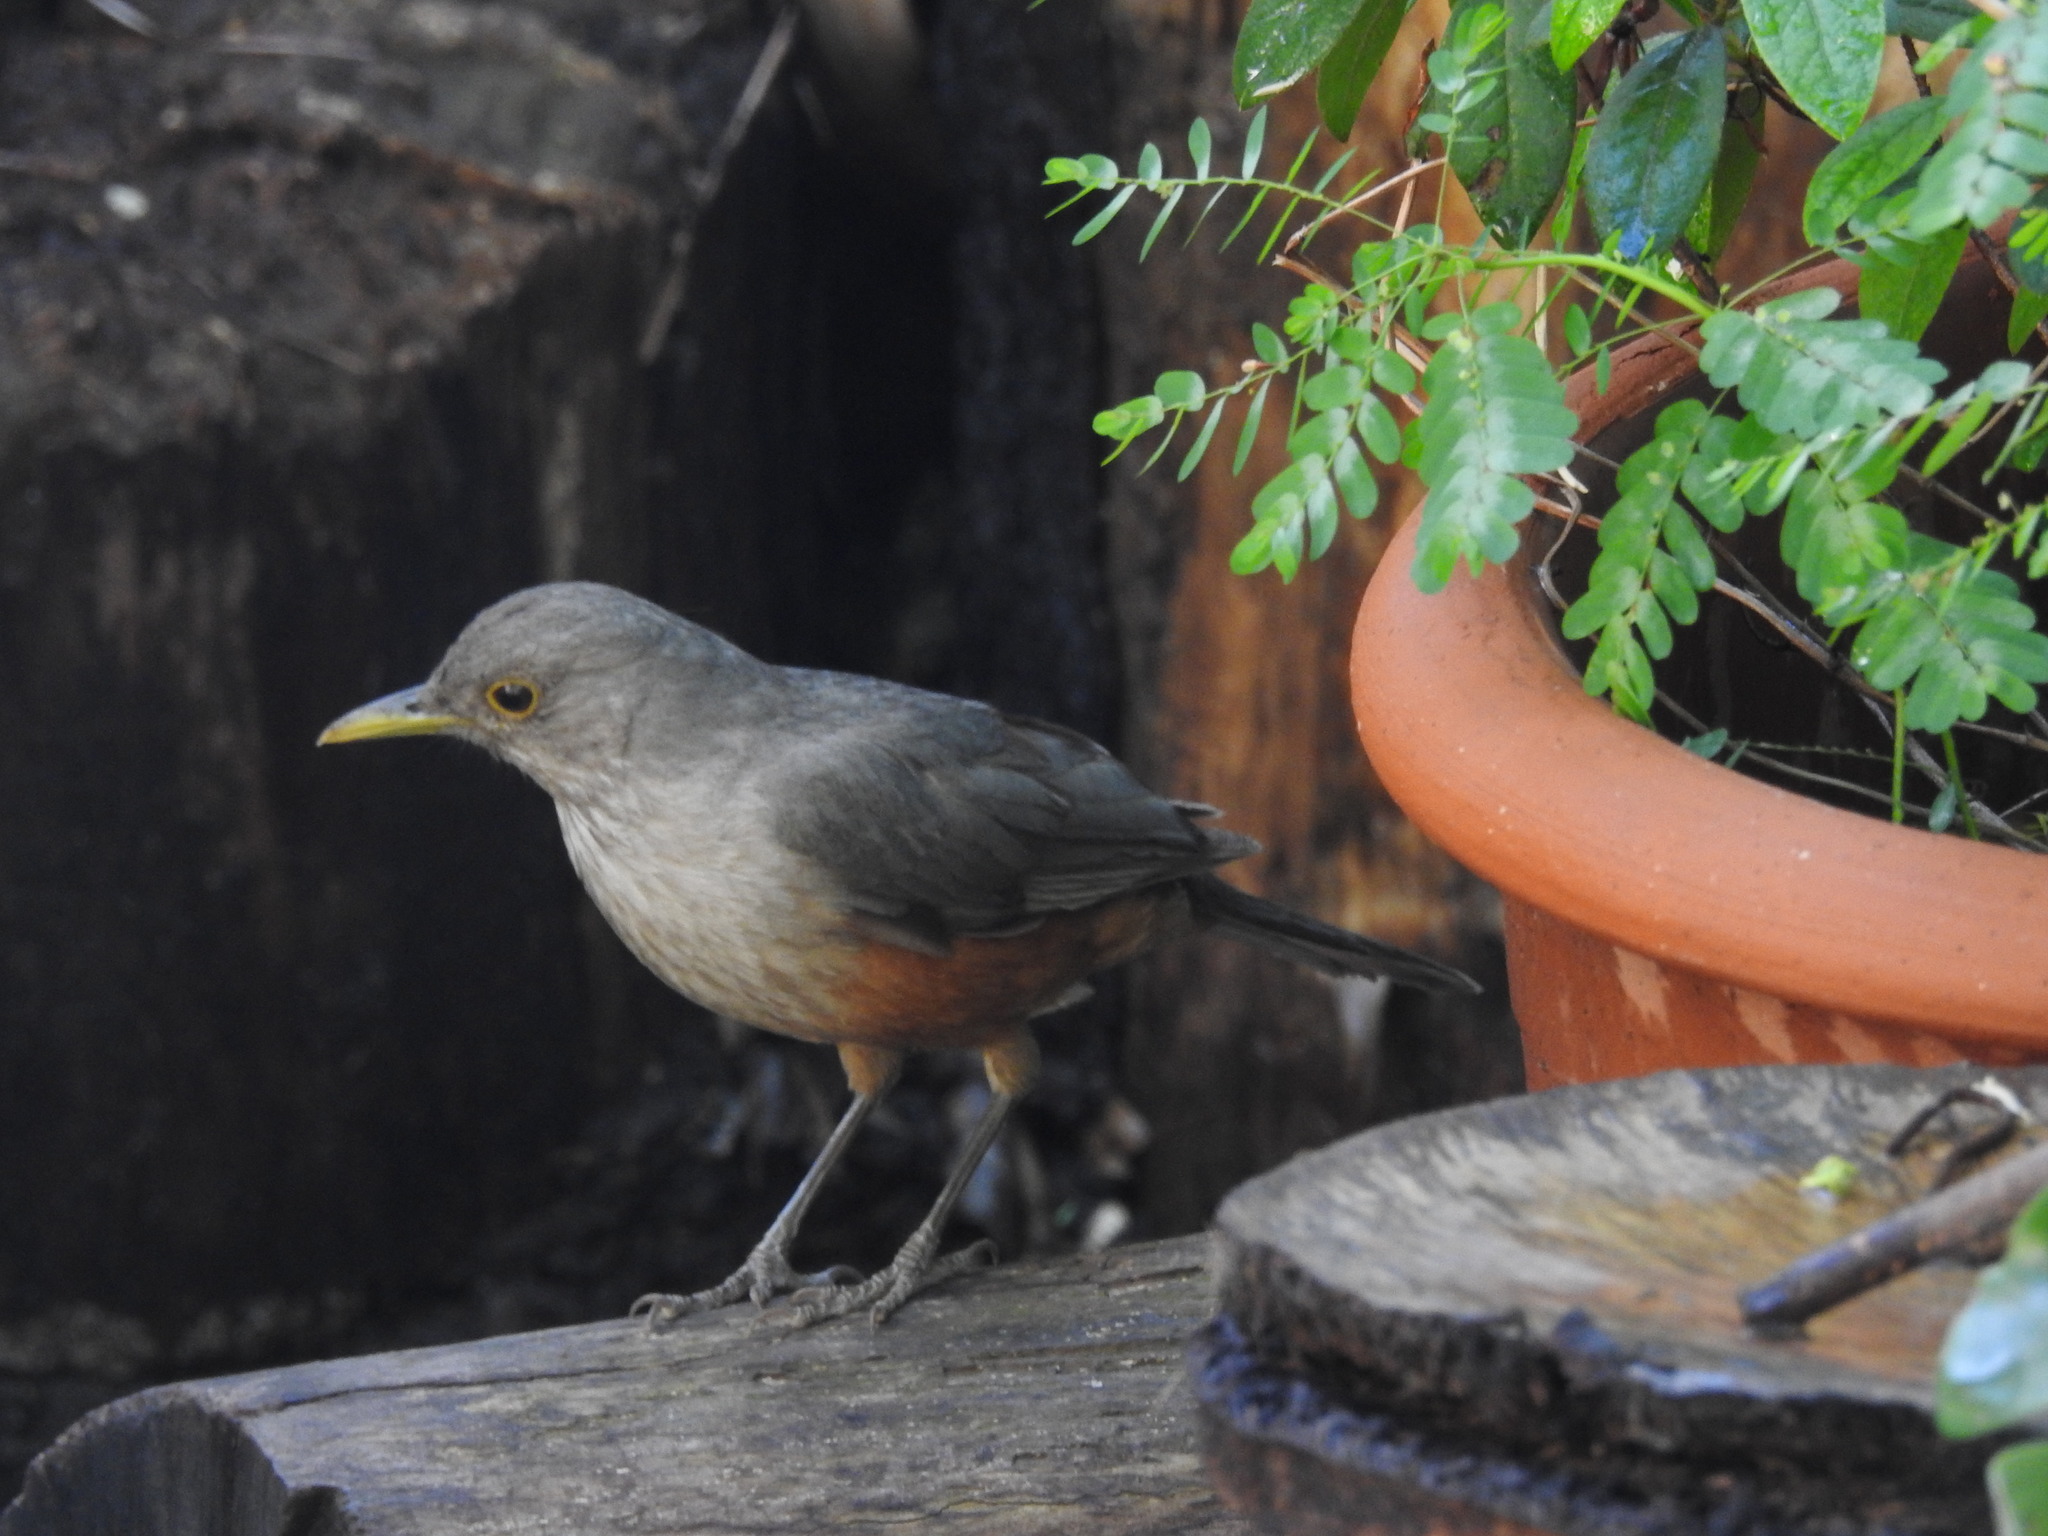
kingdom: Animalia
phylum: Chordata
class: Aves
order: Passeriformes
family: Turdidae
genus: Turdus
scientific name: Turdus rufiventris
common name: Rufous-bellied thrush
